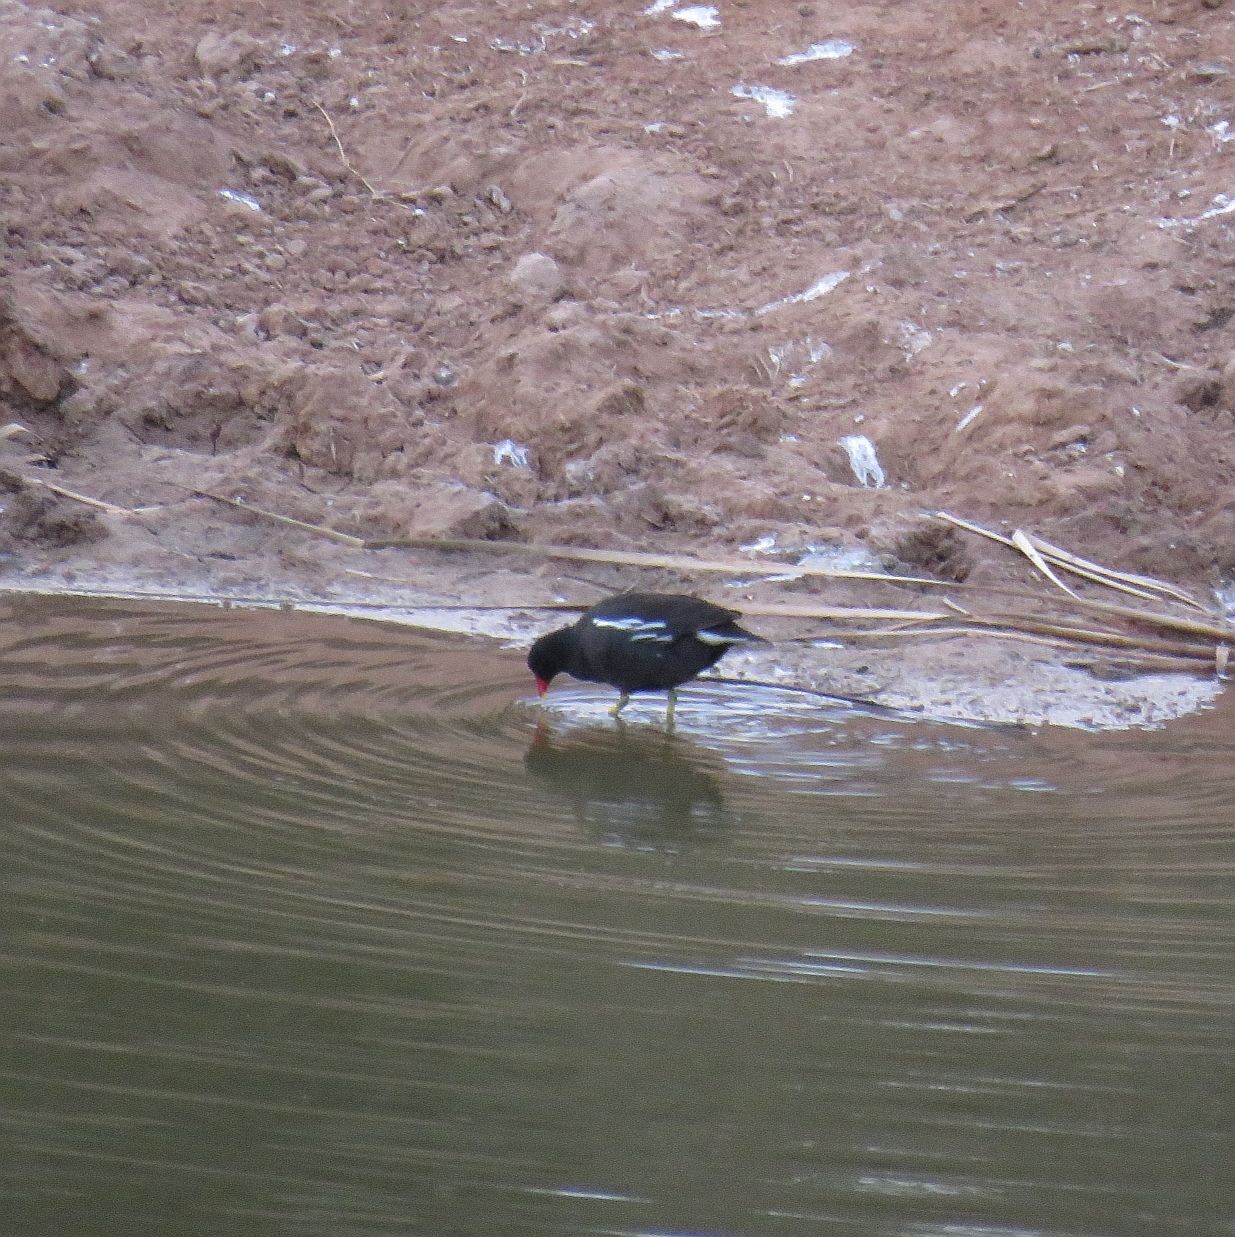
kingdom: Animalia
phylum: Chordata
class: Aves
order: Gruiformes
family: Rallidae
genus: Gallinula
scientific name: Gallinula chloropus
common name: Common moorhen
